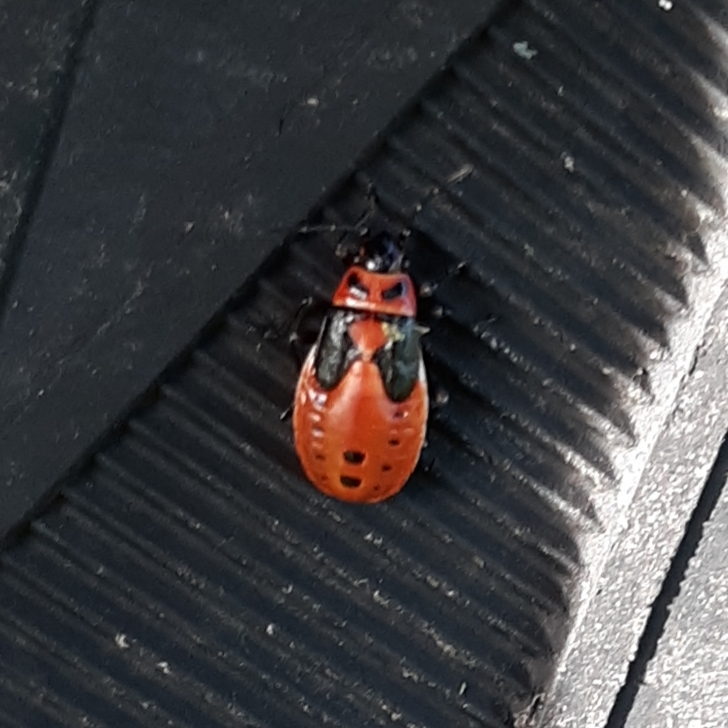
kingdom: Animalia
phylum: Arthropoda
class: Insecta
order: Hemiptera
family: Lygaeidae
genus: Lygaeus
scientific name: Lygaeus kalmii
